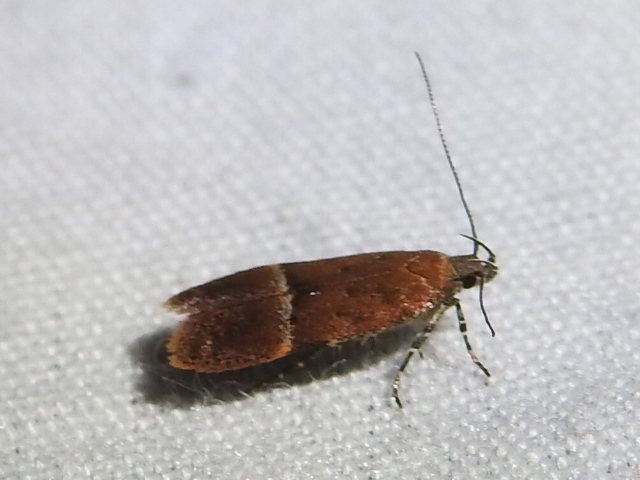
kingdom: Animalia
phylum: Arthropoda
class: Insecta
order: Lepidoptera
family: Gelechiidae
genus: Eudactylota
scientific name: Eudactylota iobapta
